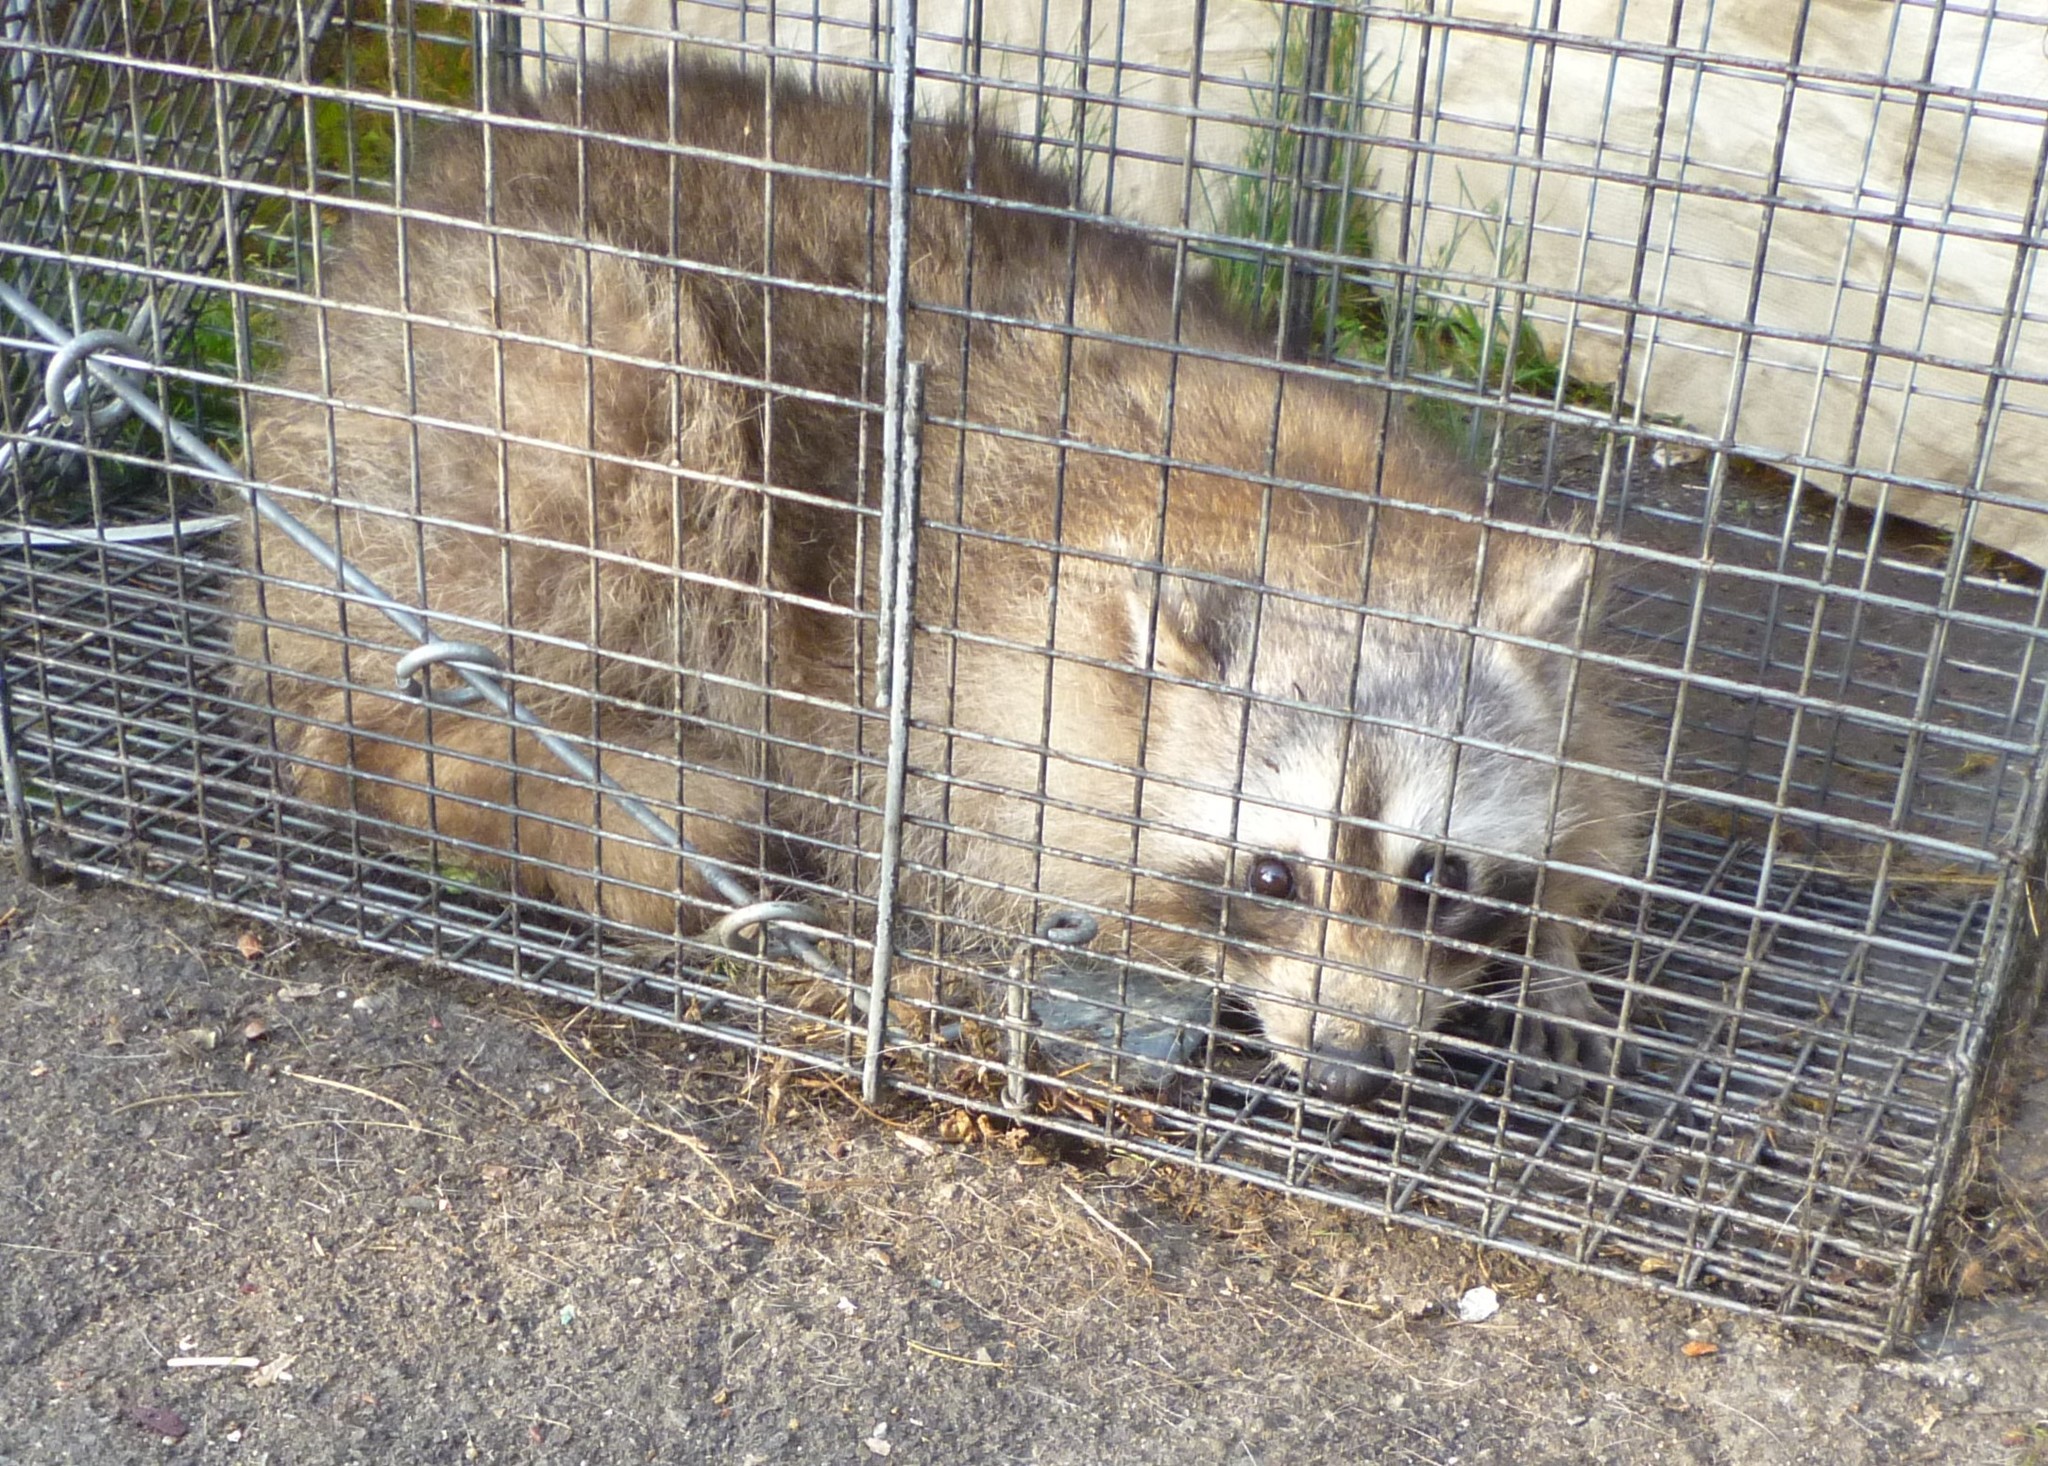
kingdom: Animalia
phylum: Chordata
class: Mammalia
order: Carnivora
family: Procyonidae
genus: Procyon
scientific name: Procyon lotor
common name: Raccoon
